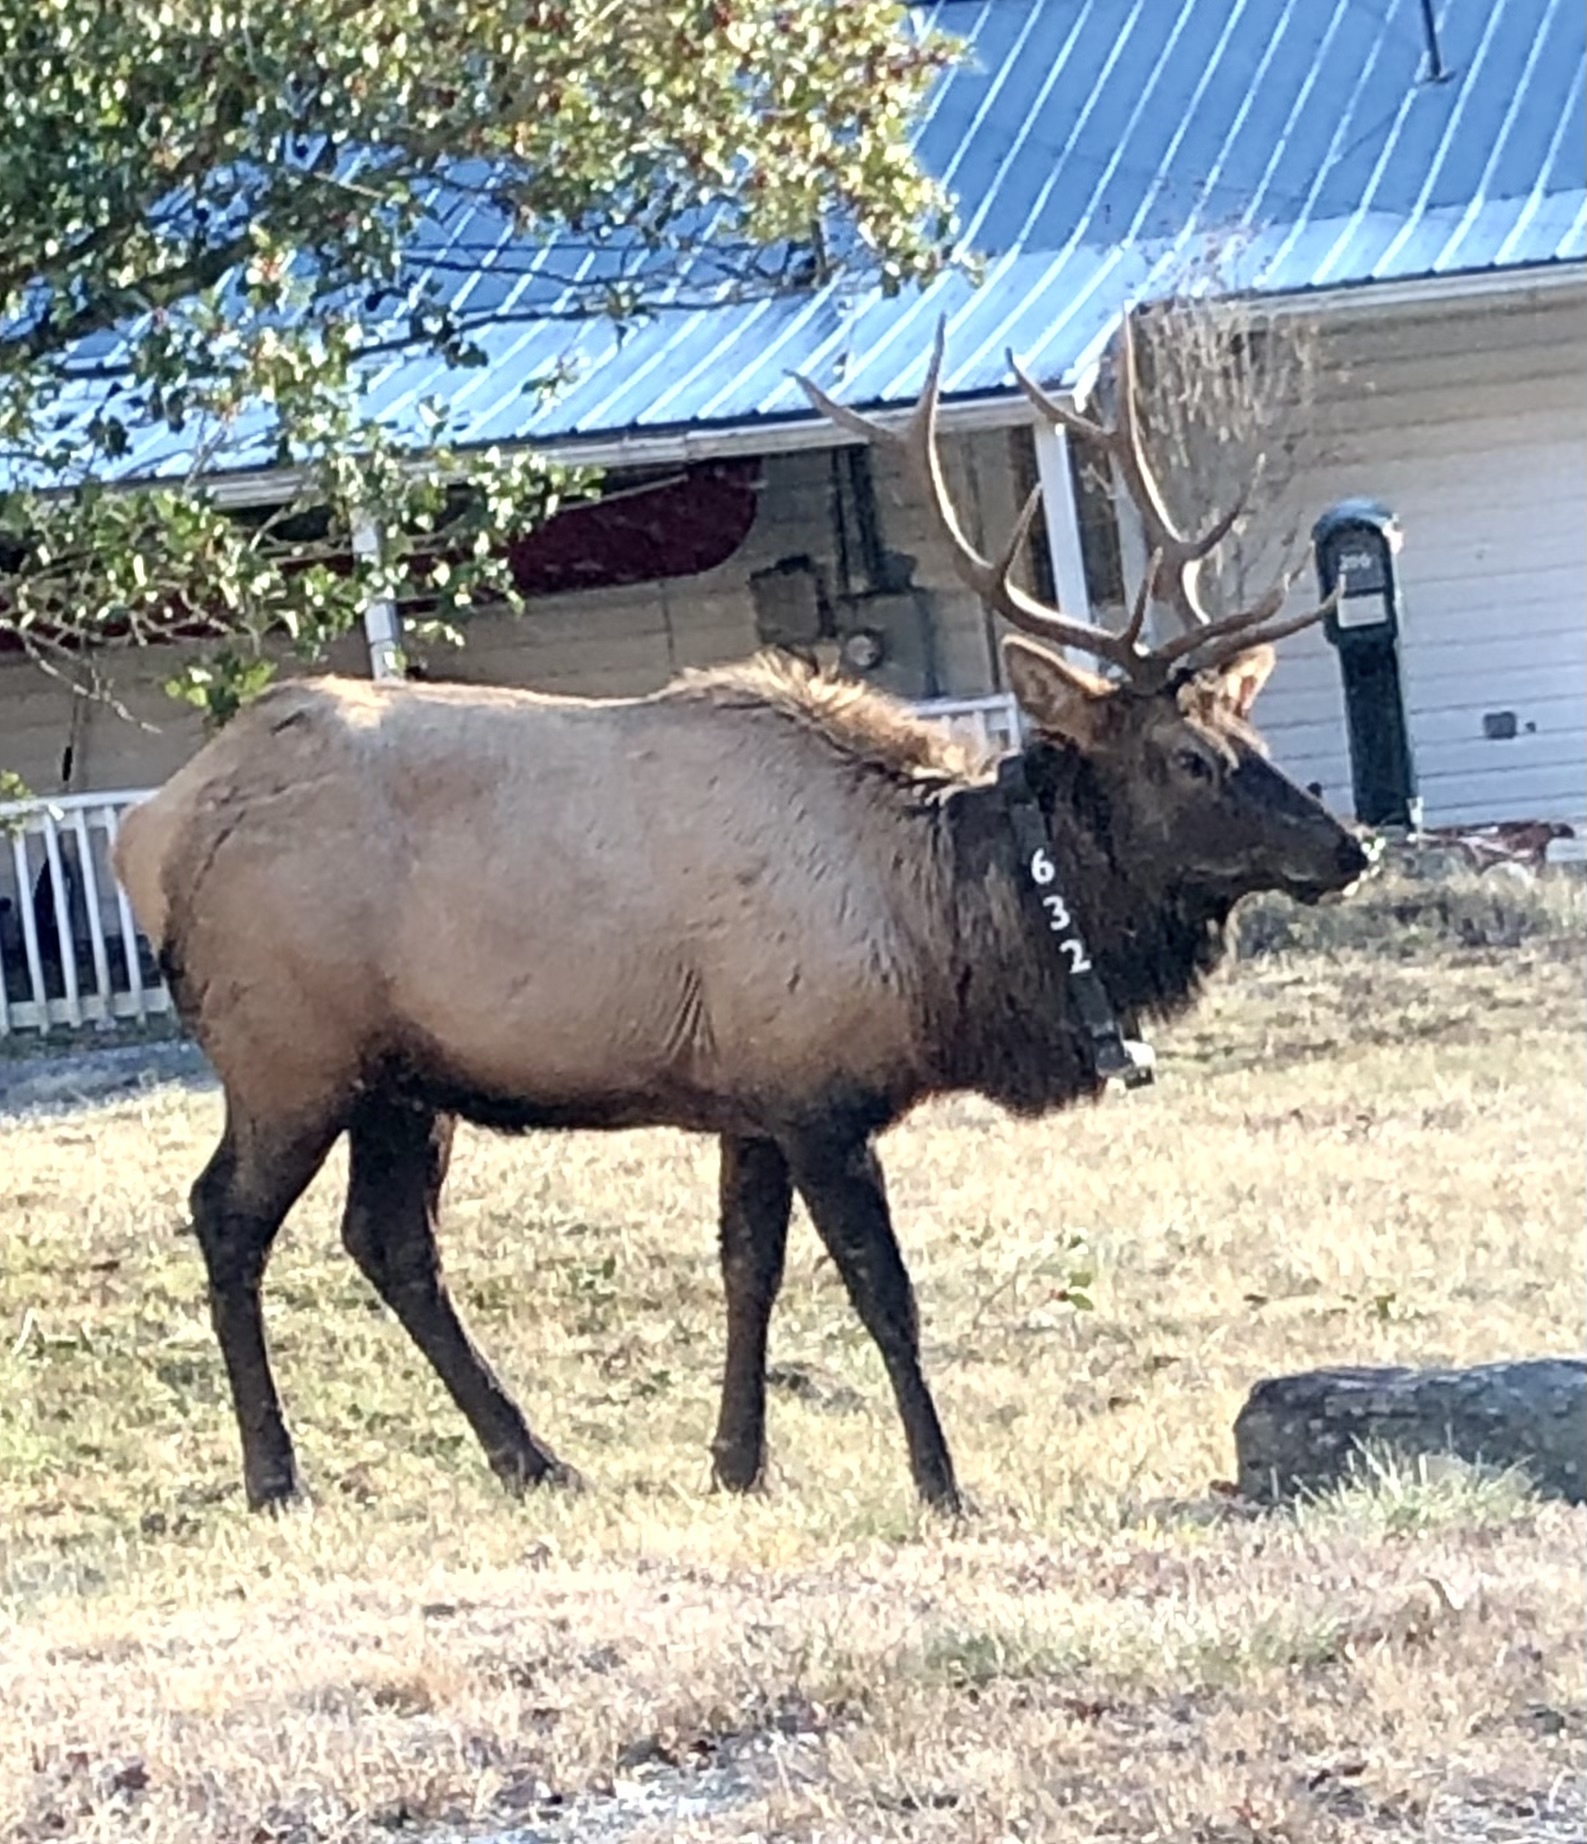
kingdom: Animalia
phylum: Chordata
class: Mammalia
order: Artiodactyla
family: Cervidae
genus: Cervus
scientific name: Cervus elaphus
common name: Red deer
